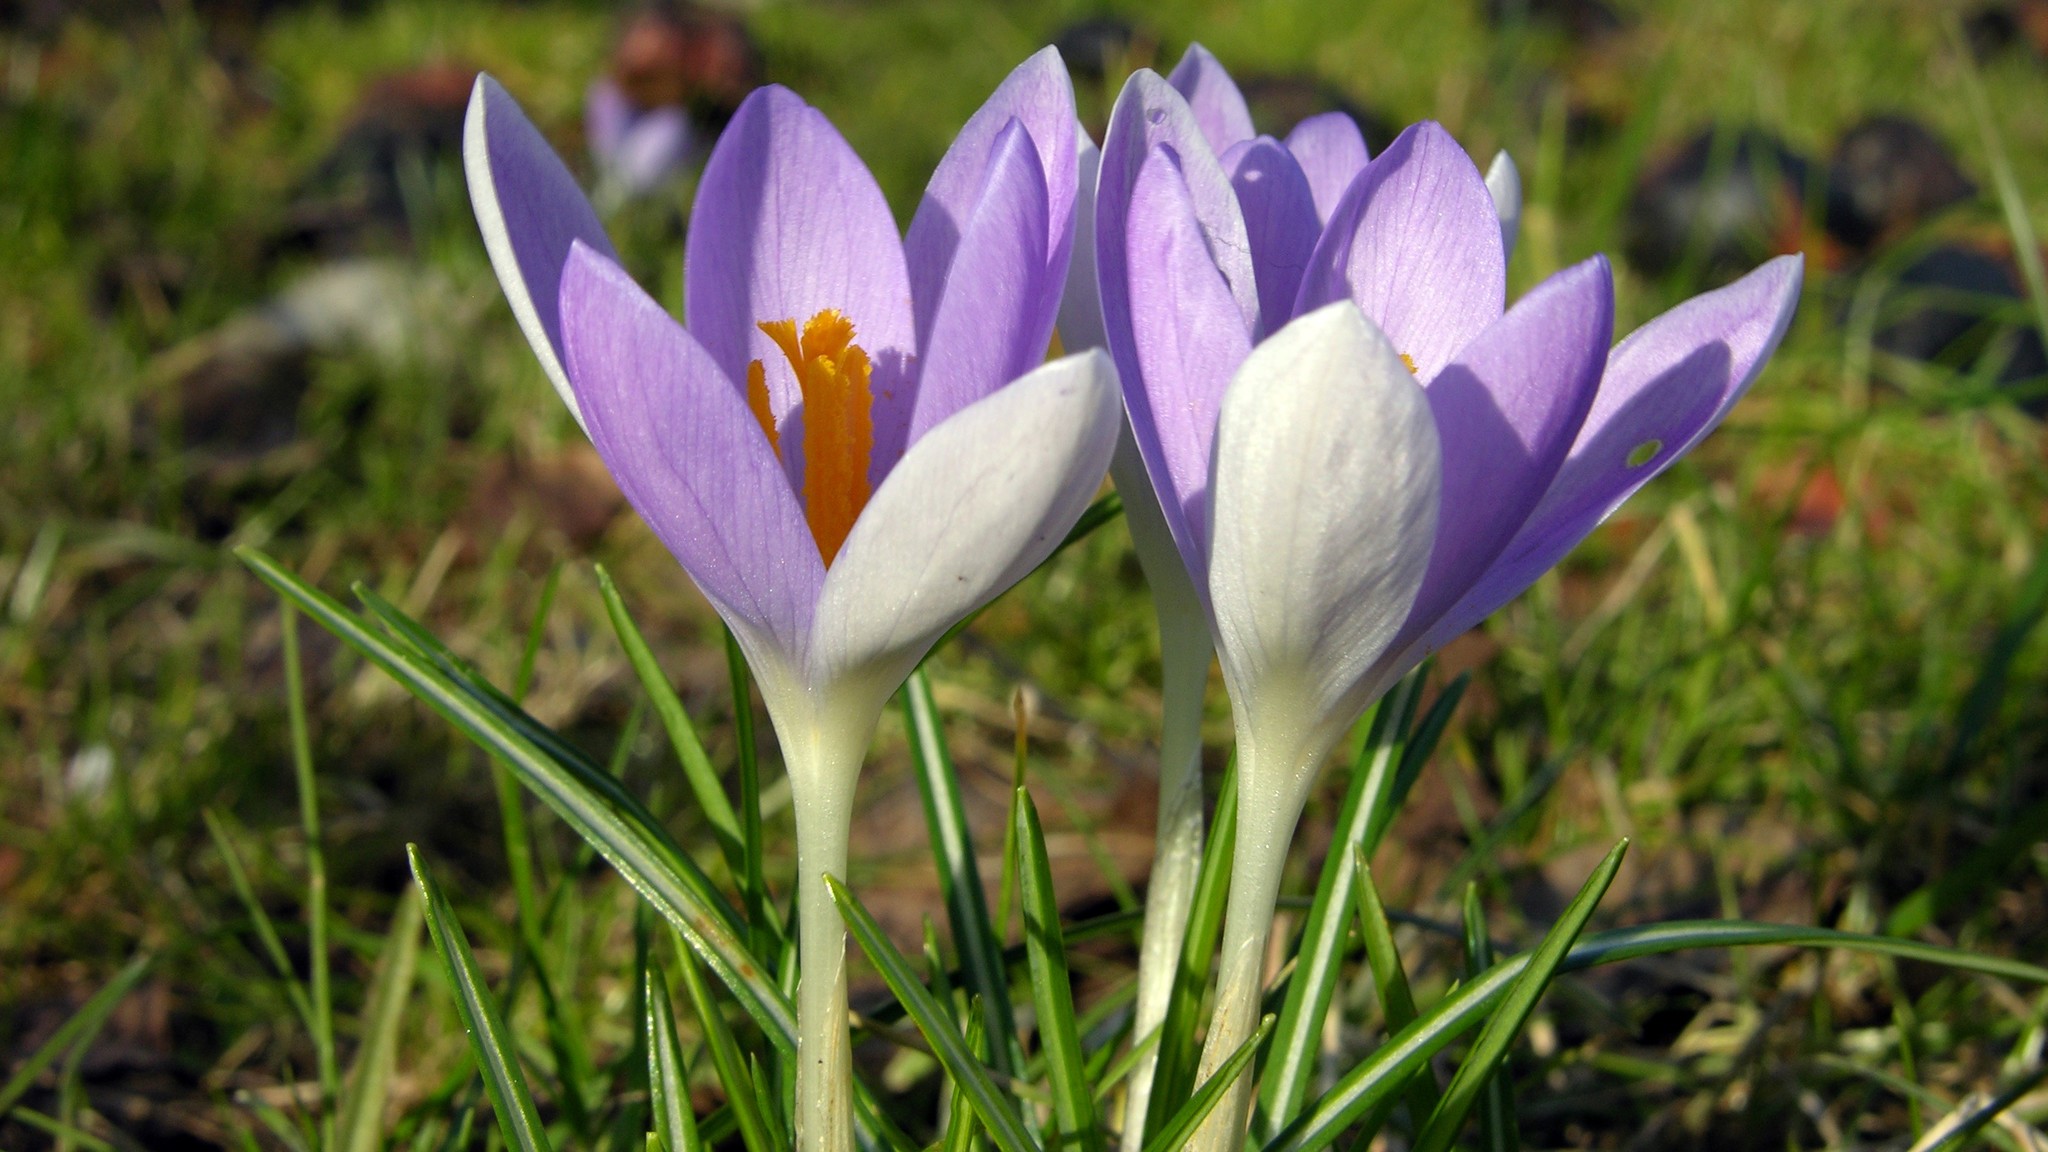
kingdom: Plantae
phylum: Tracheophyta
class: Liliopsida
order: Asparagales
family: Iridaceae
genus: Crocus
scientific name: Crocus tommasinianus
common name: Early crocus
